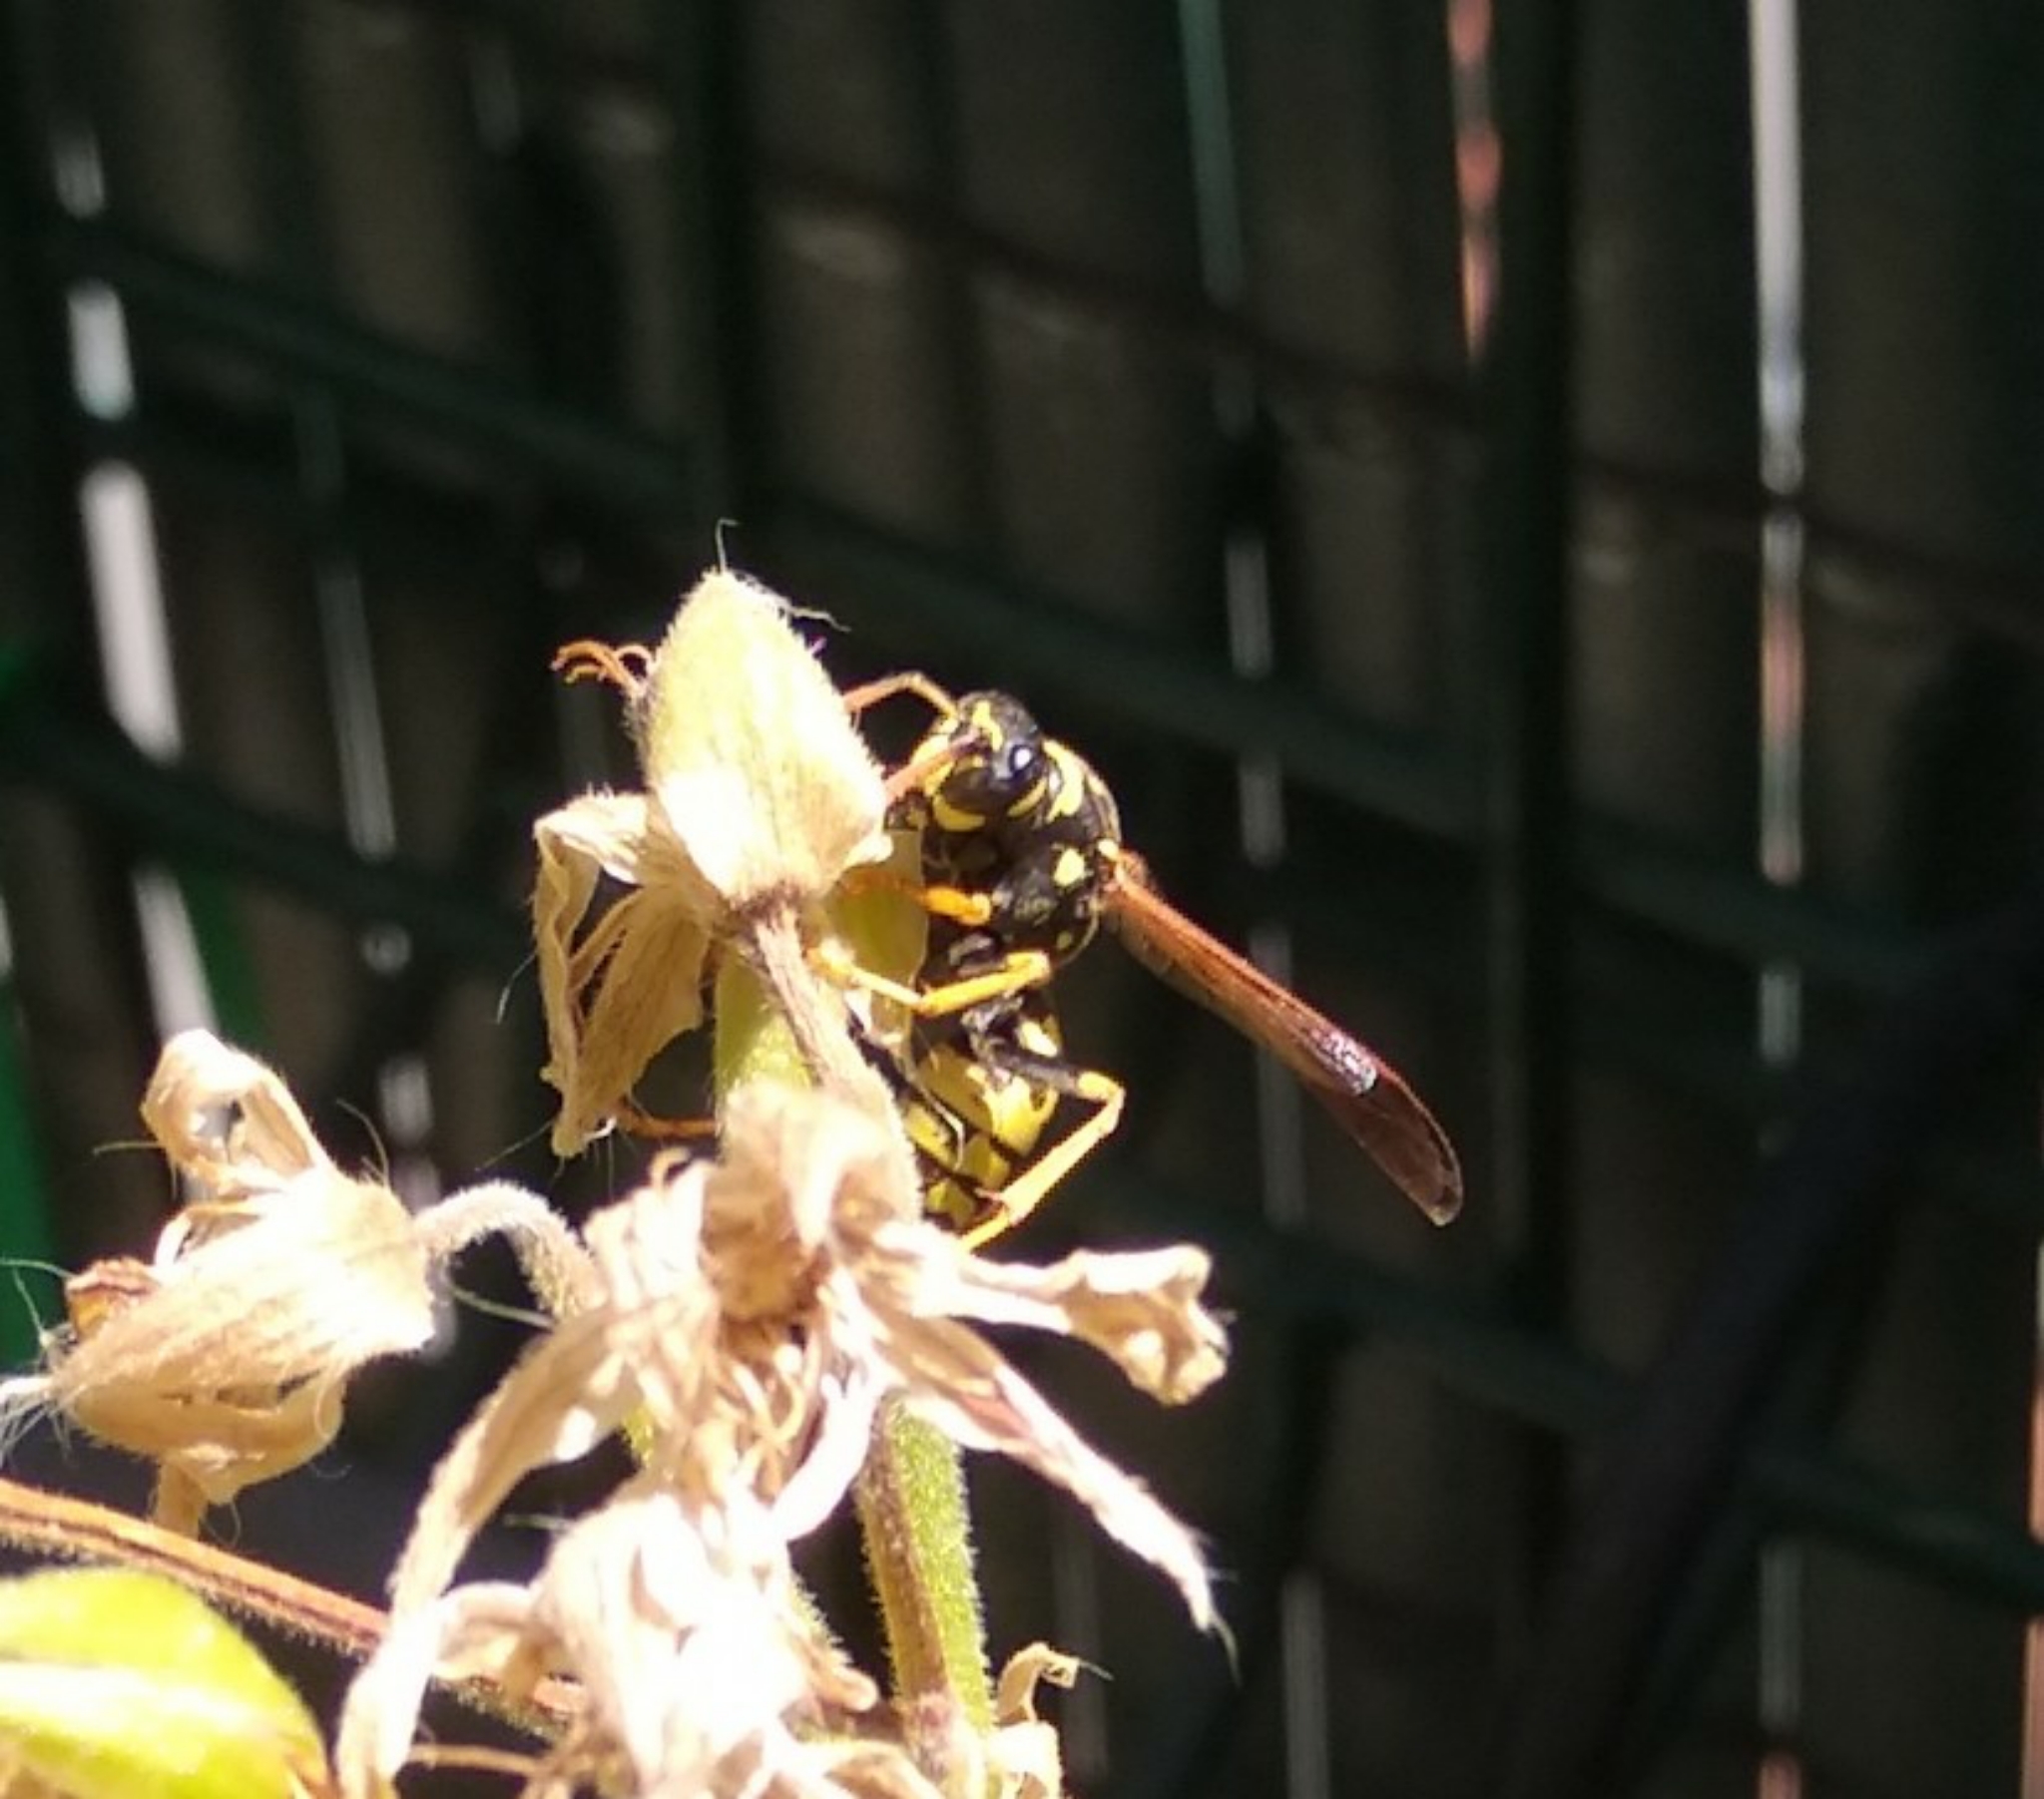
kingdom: Animalia
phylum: Arthropoda
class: Insecta
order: Hymenoptera
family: Eumenidae
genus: Polistes
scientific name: Polistes dominula
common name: Paper wasp
